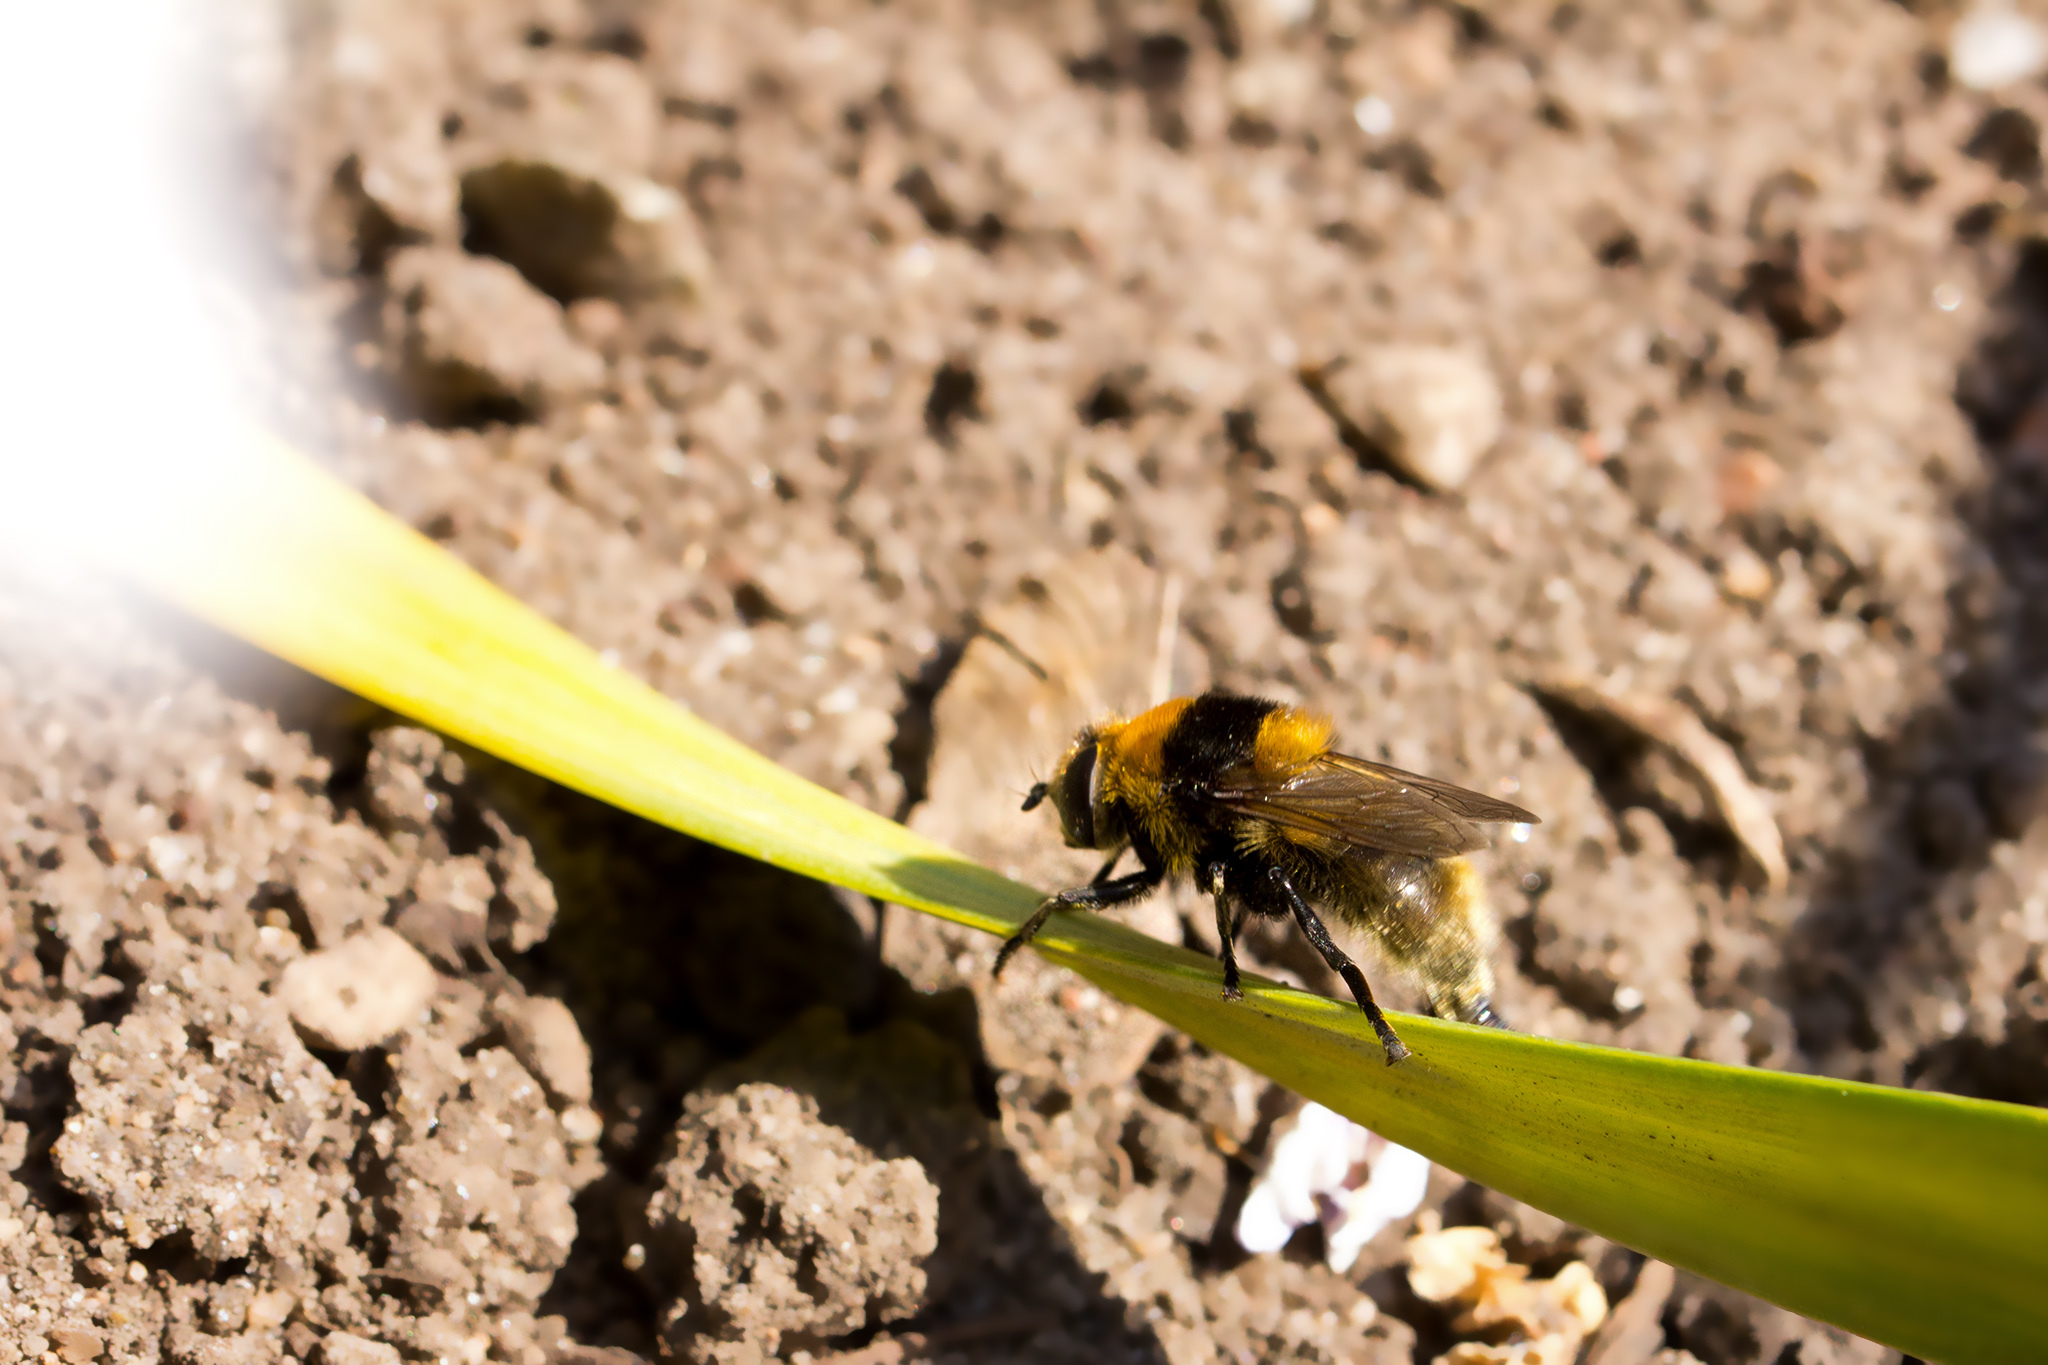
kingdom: Animalia
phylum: Arthropoda
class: Insecta
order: Diptera
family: Syrphidae
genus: Merodon
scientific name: Merodon equestris
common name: Greater bulb-fly
